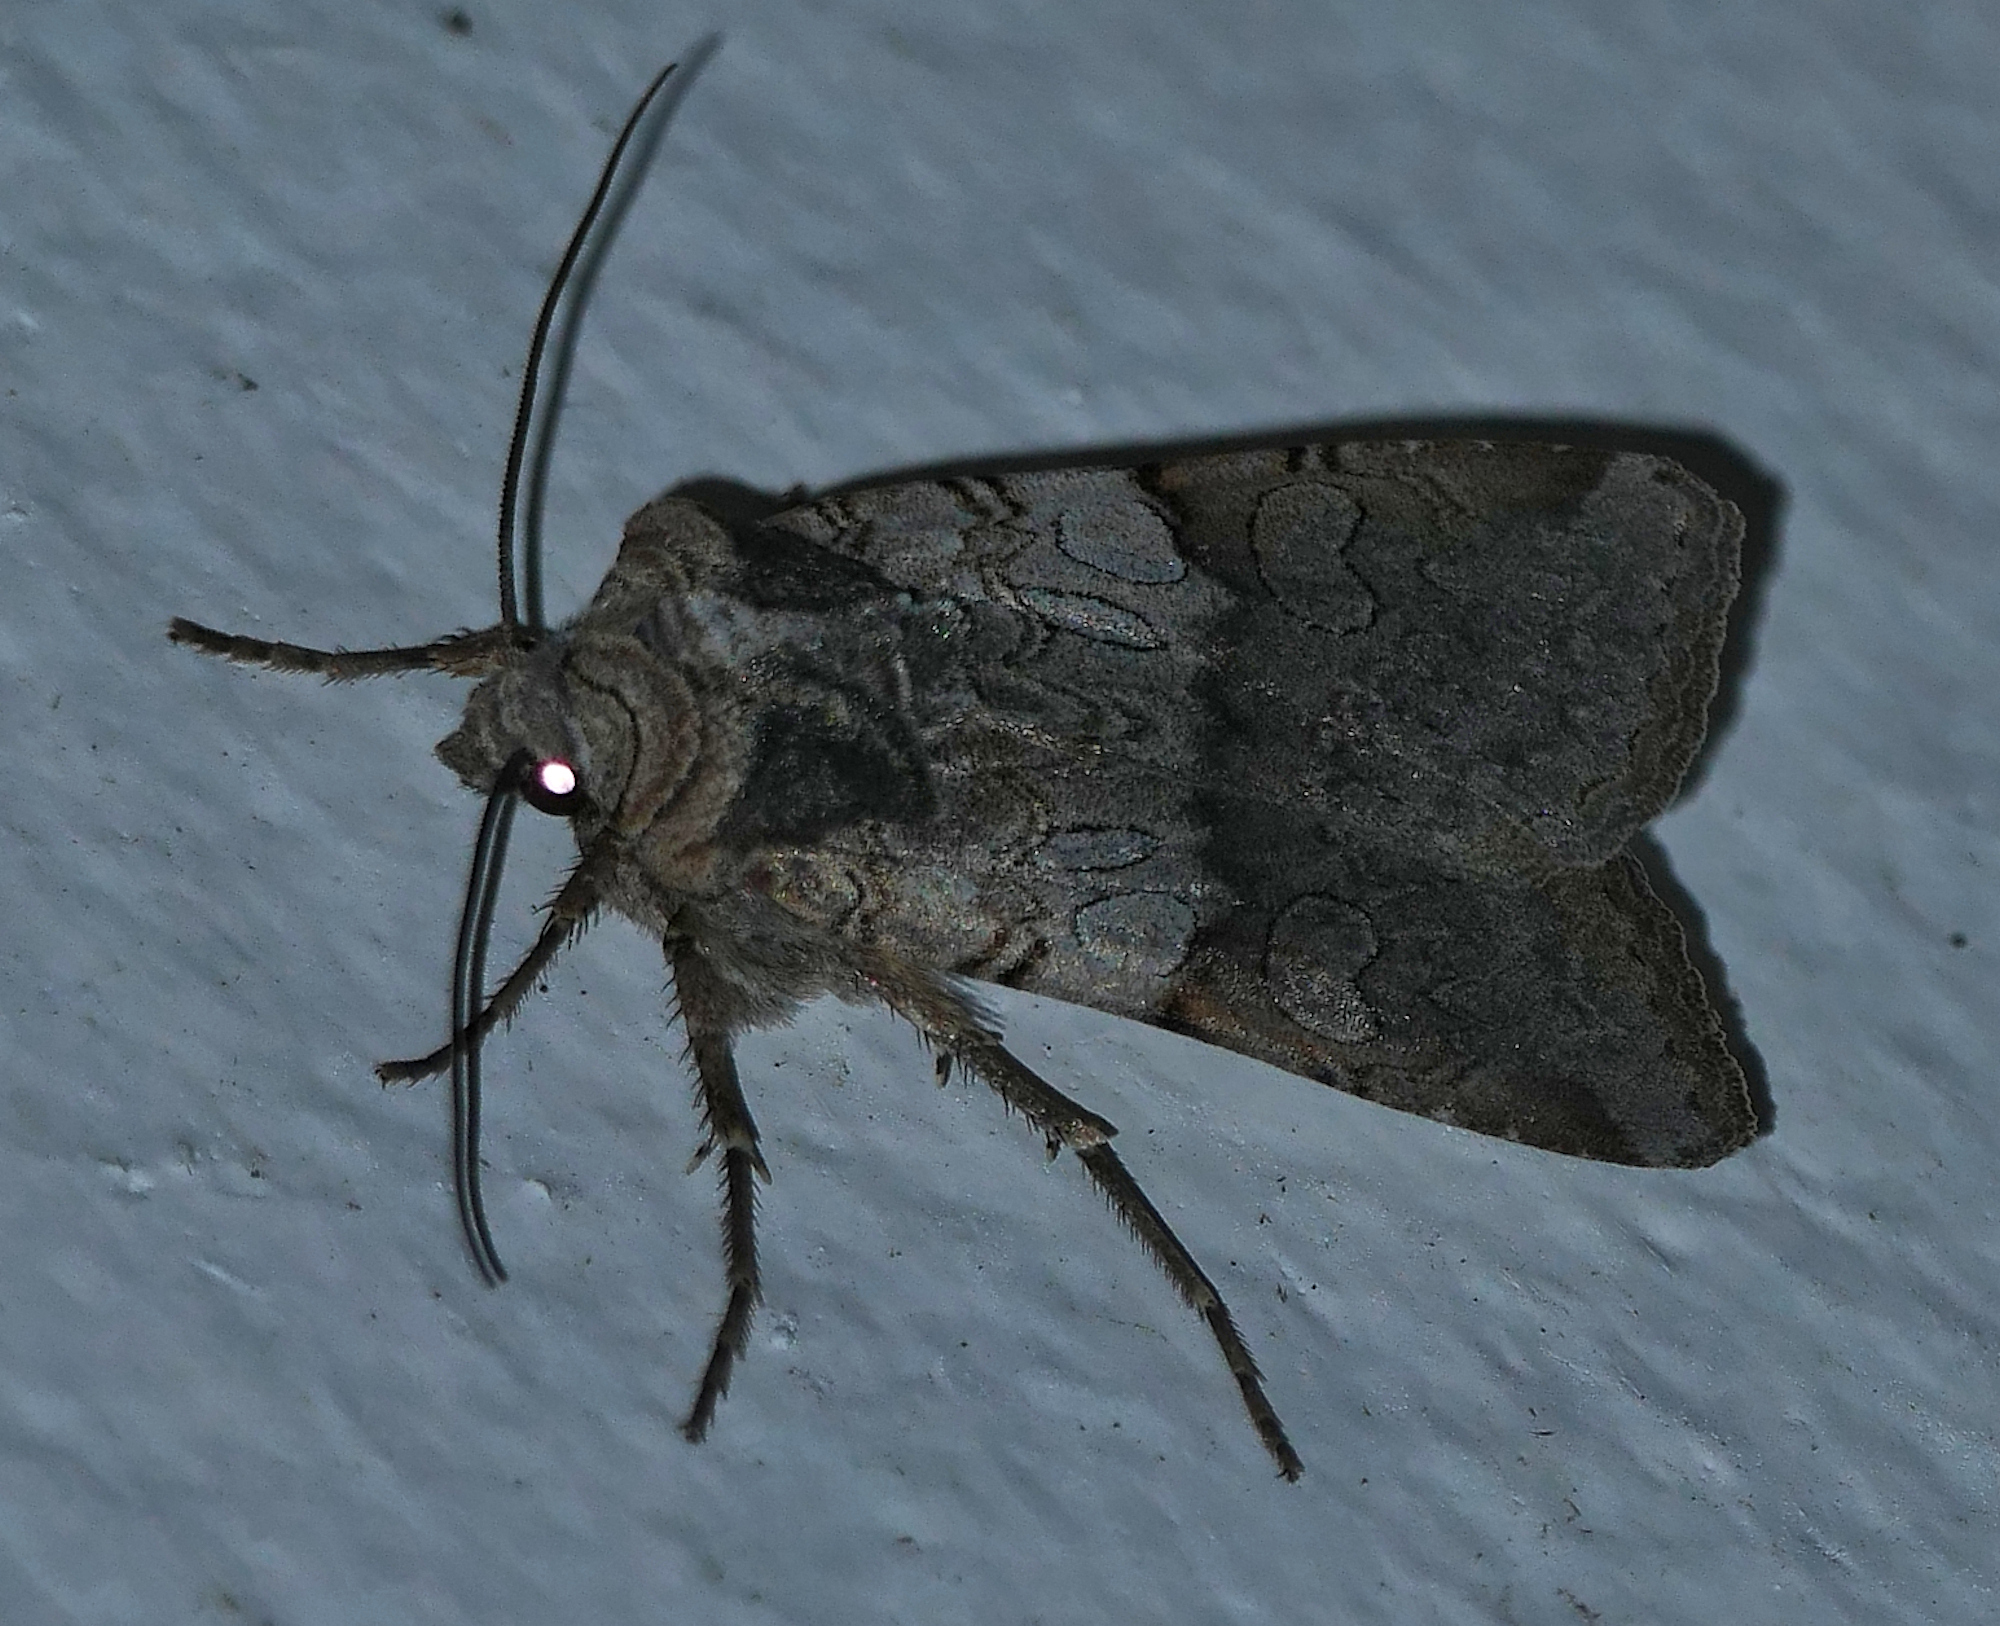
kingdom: Animalia
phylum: Arthropoda
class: Insecta
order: Lepidoptera
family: Noctuidae
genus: Euxoa
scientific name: Euxoa sculptilis
